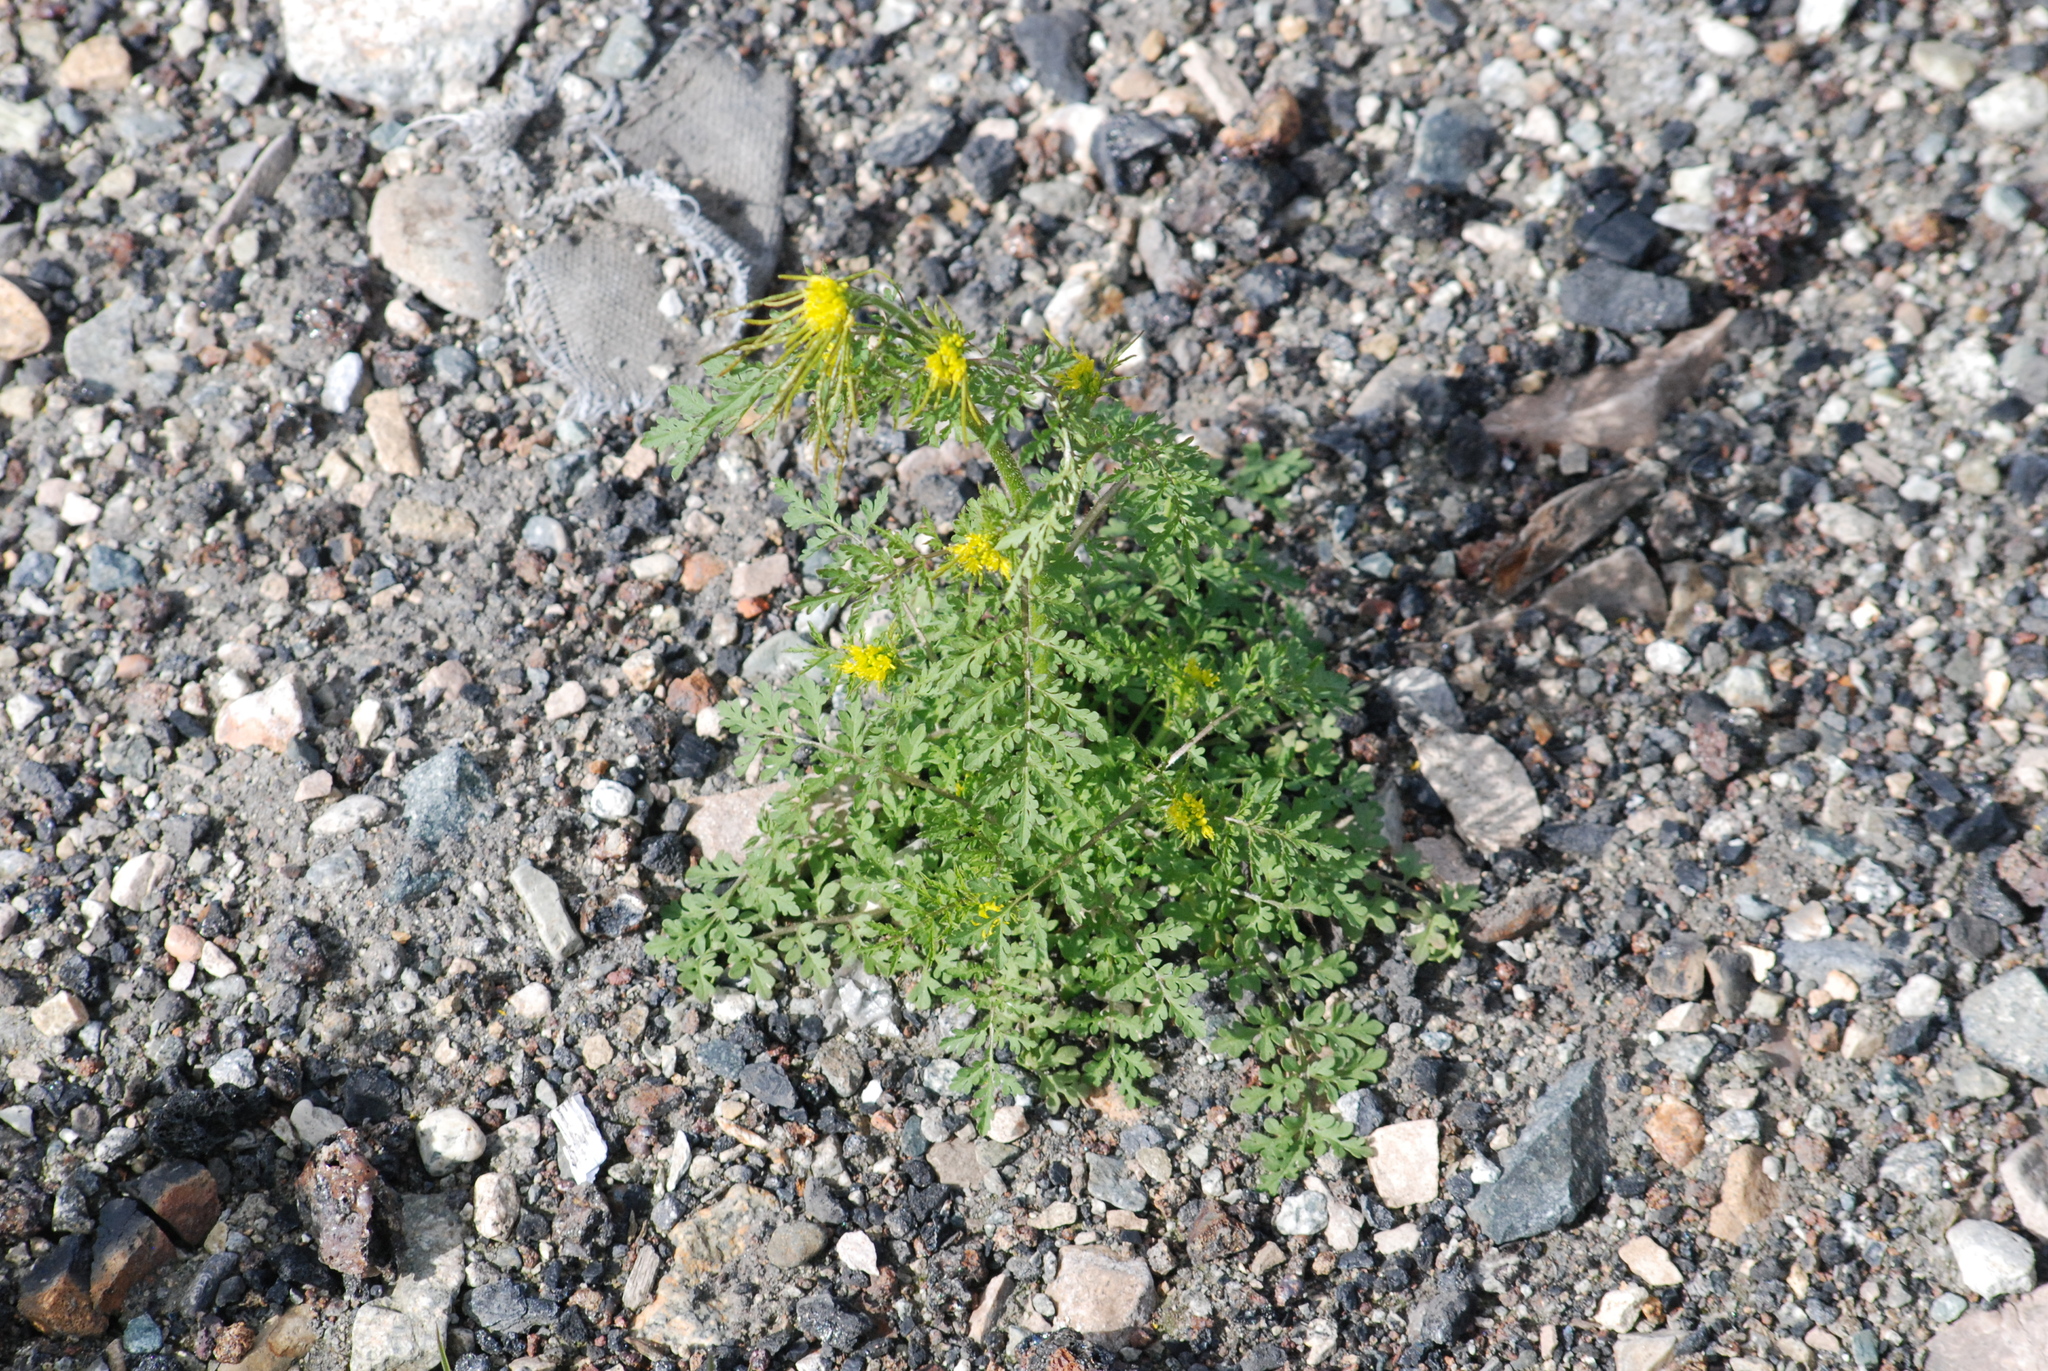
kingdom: Plantae
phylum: Tracheophyta
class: Magnoliopsida
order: Brassicales
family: Brassicaceae
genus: Descurainia
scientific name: Descurainia sophioides
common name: Northern tansy mustard
